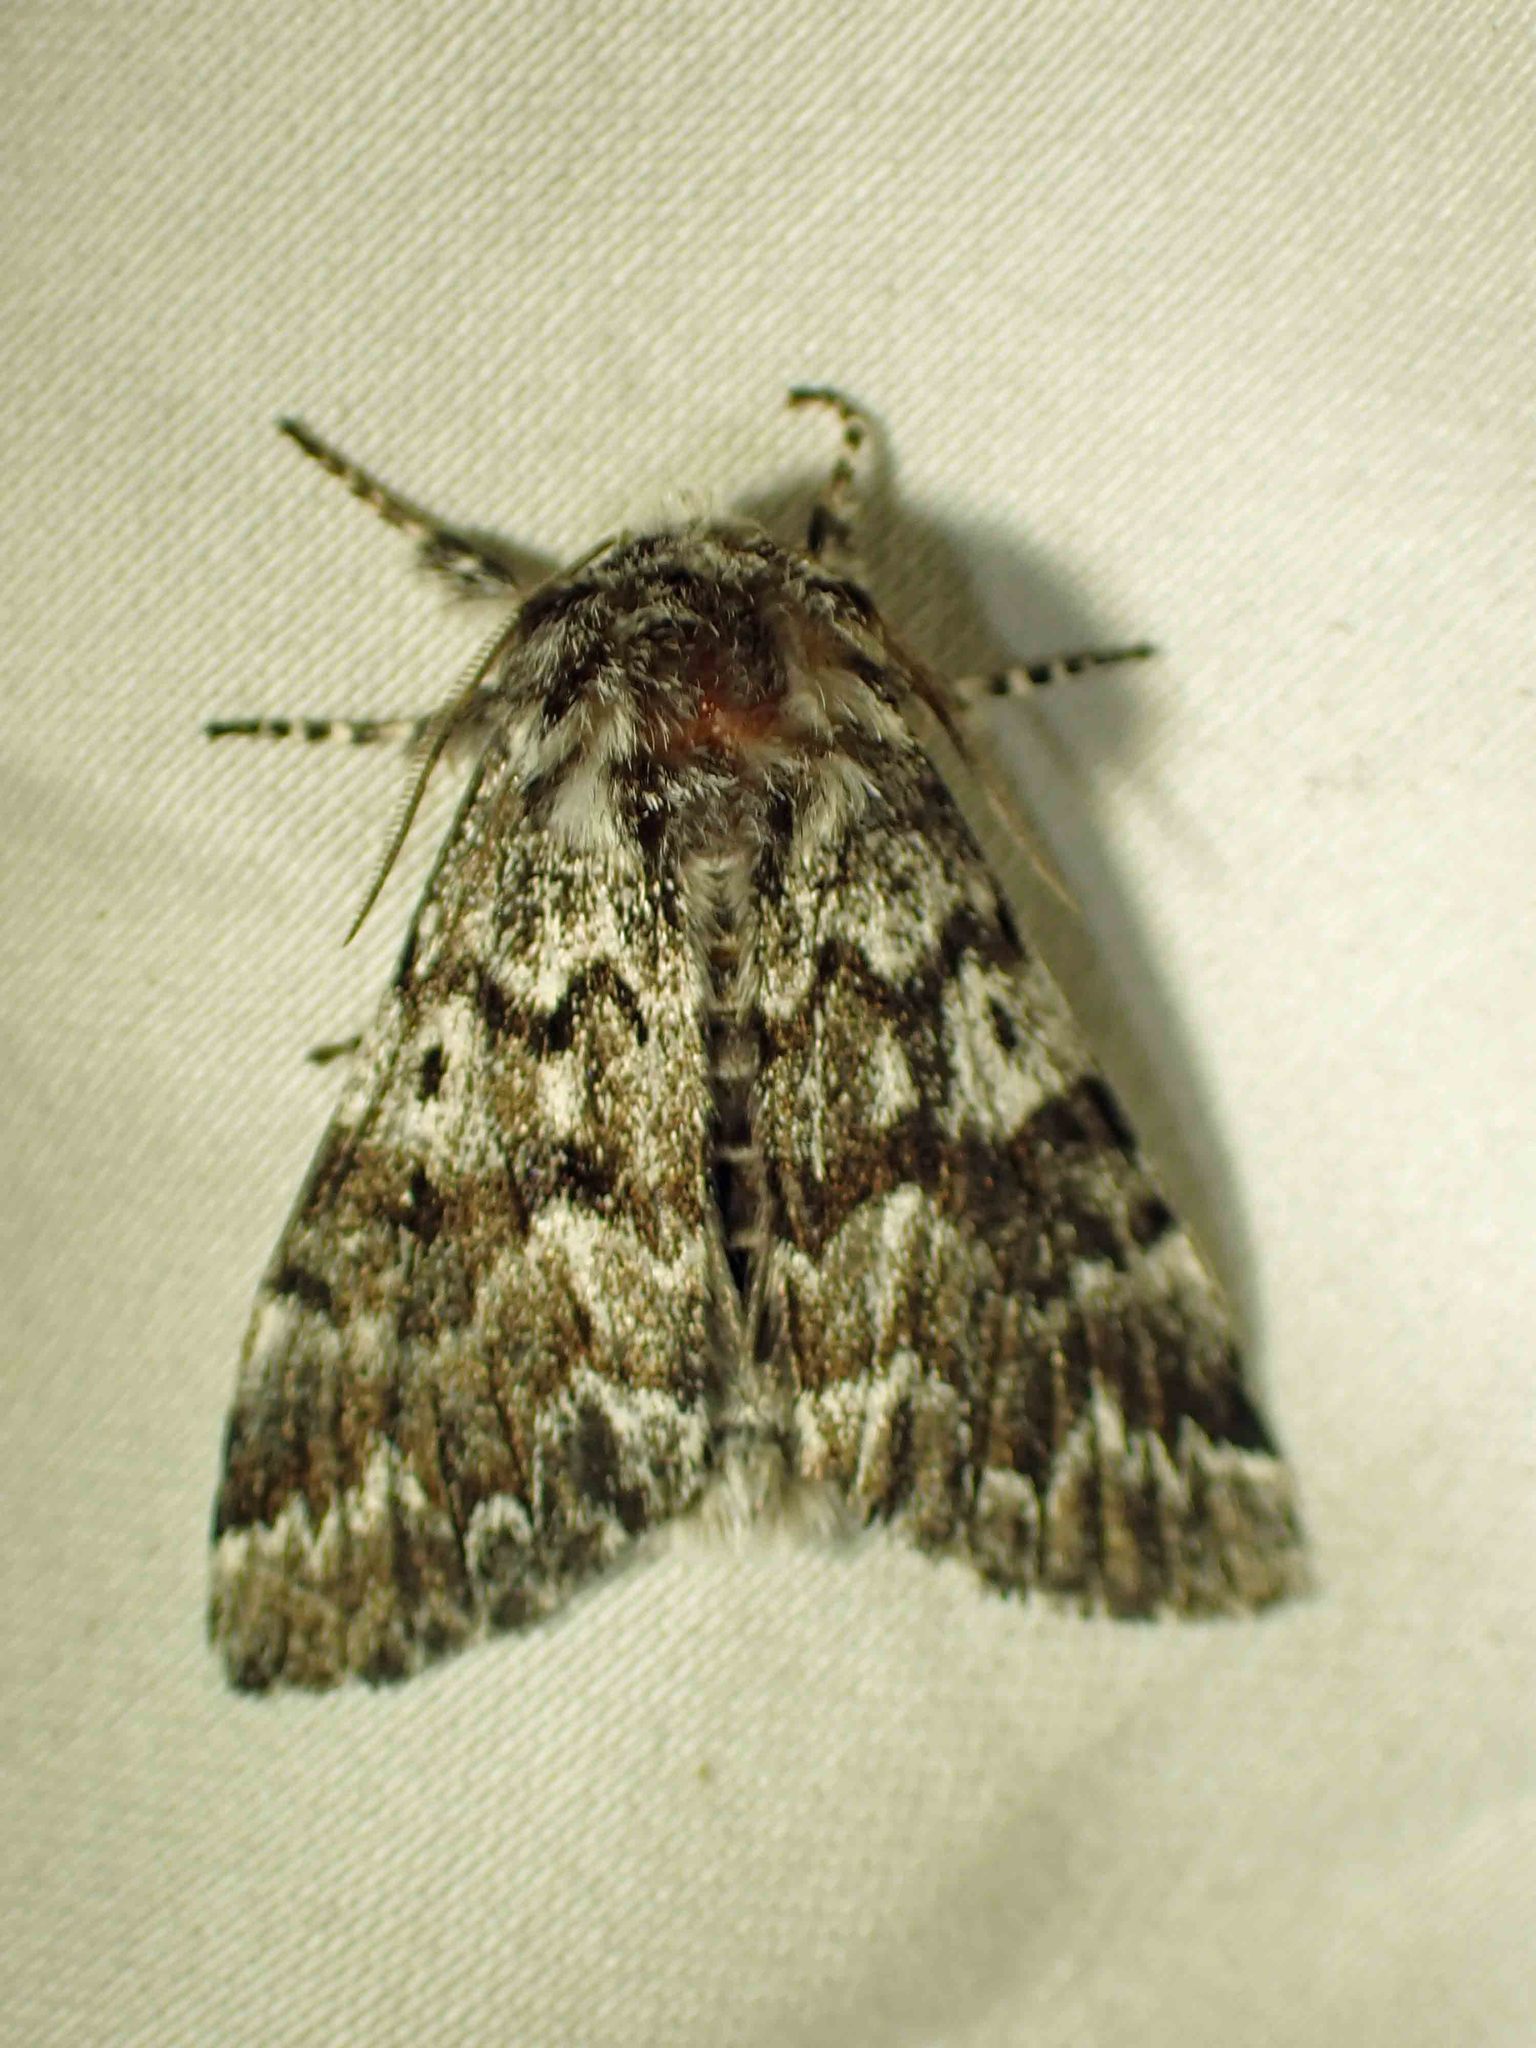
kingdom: Animalia
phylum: Arthropoda
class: Insecta
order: Lepidoptera
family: Noctuidae
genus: Panthea
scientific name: Panthea acronyctoides
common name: Black zigzag moth
